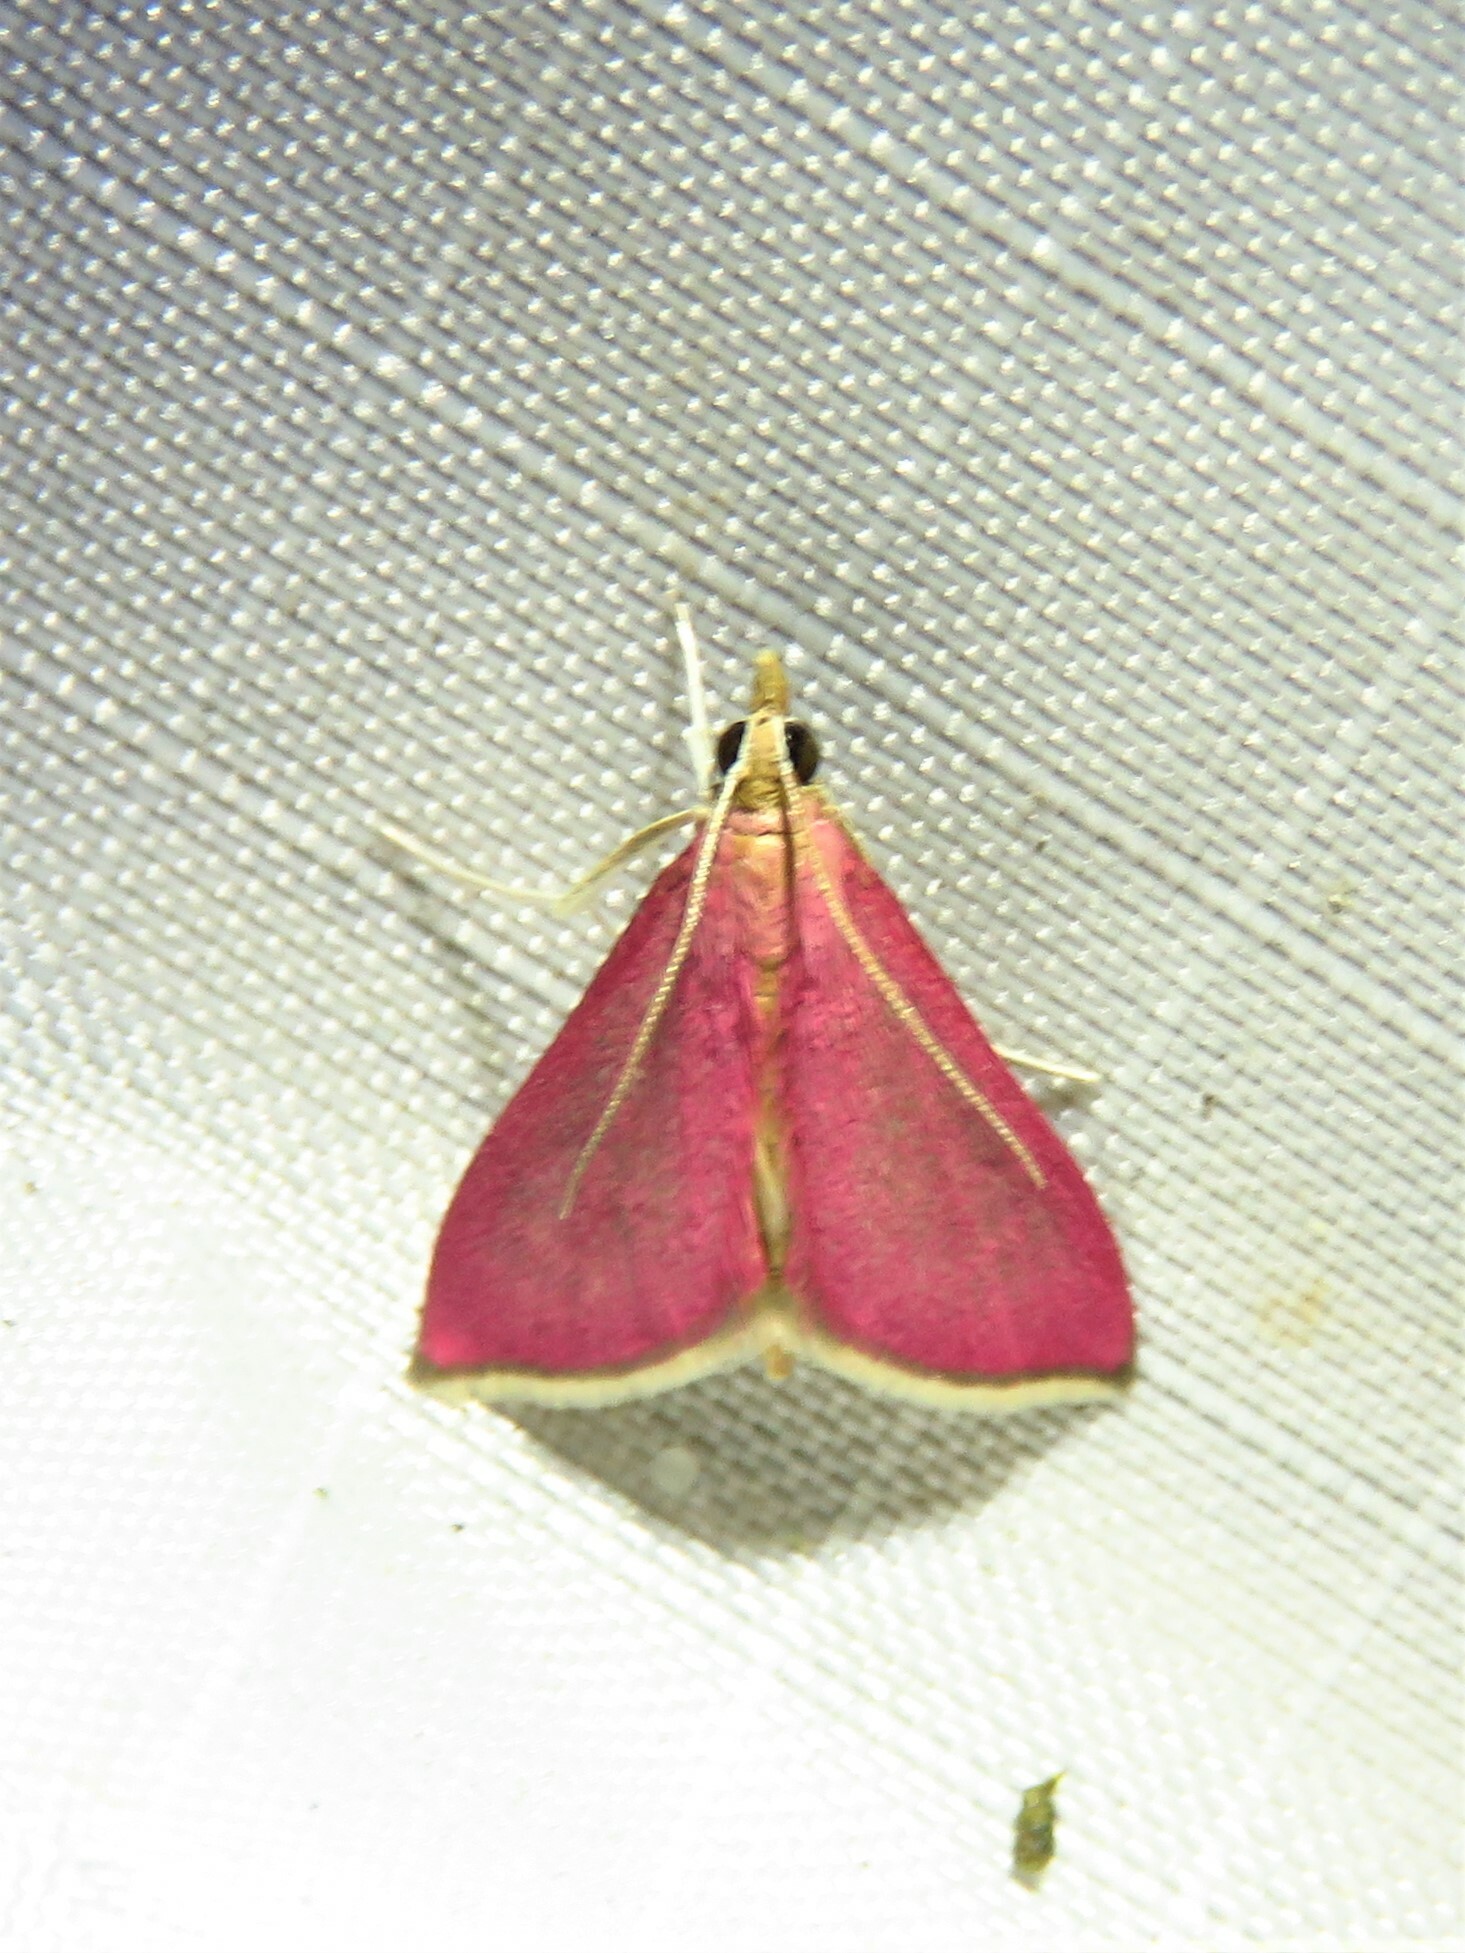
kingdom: Animalia
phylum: Arthropoda
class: Insecta
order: Lepidoptera
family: Crambidae
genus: Pyrausta
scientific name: Pyrausta inornatalis
